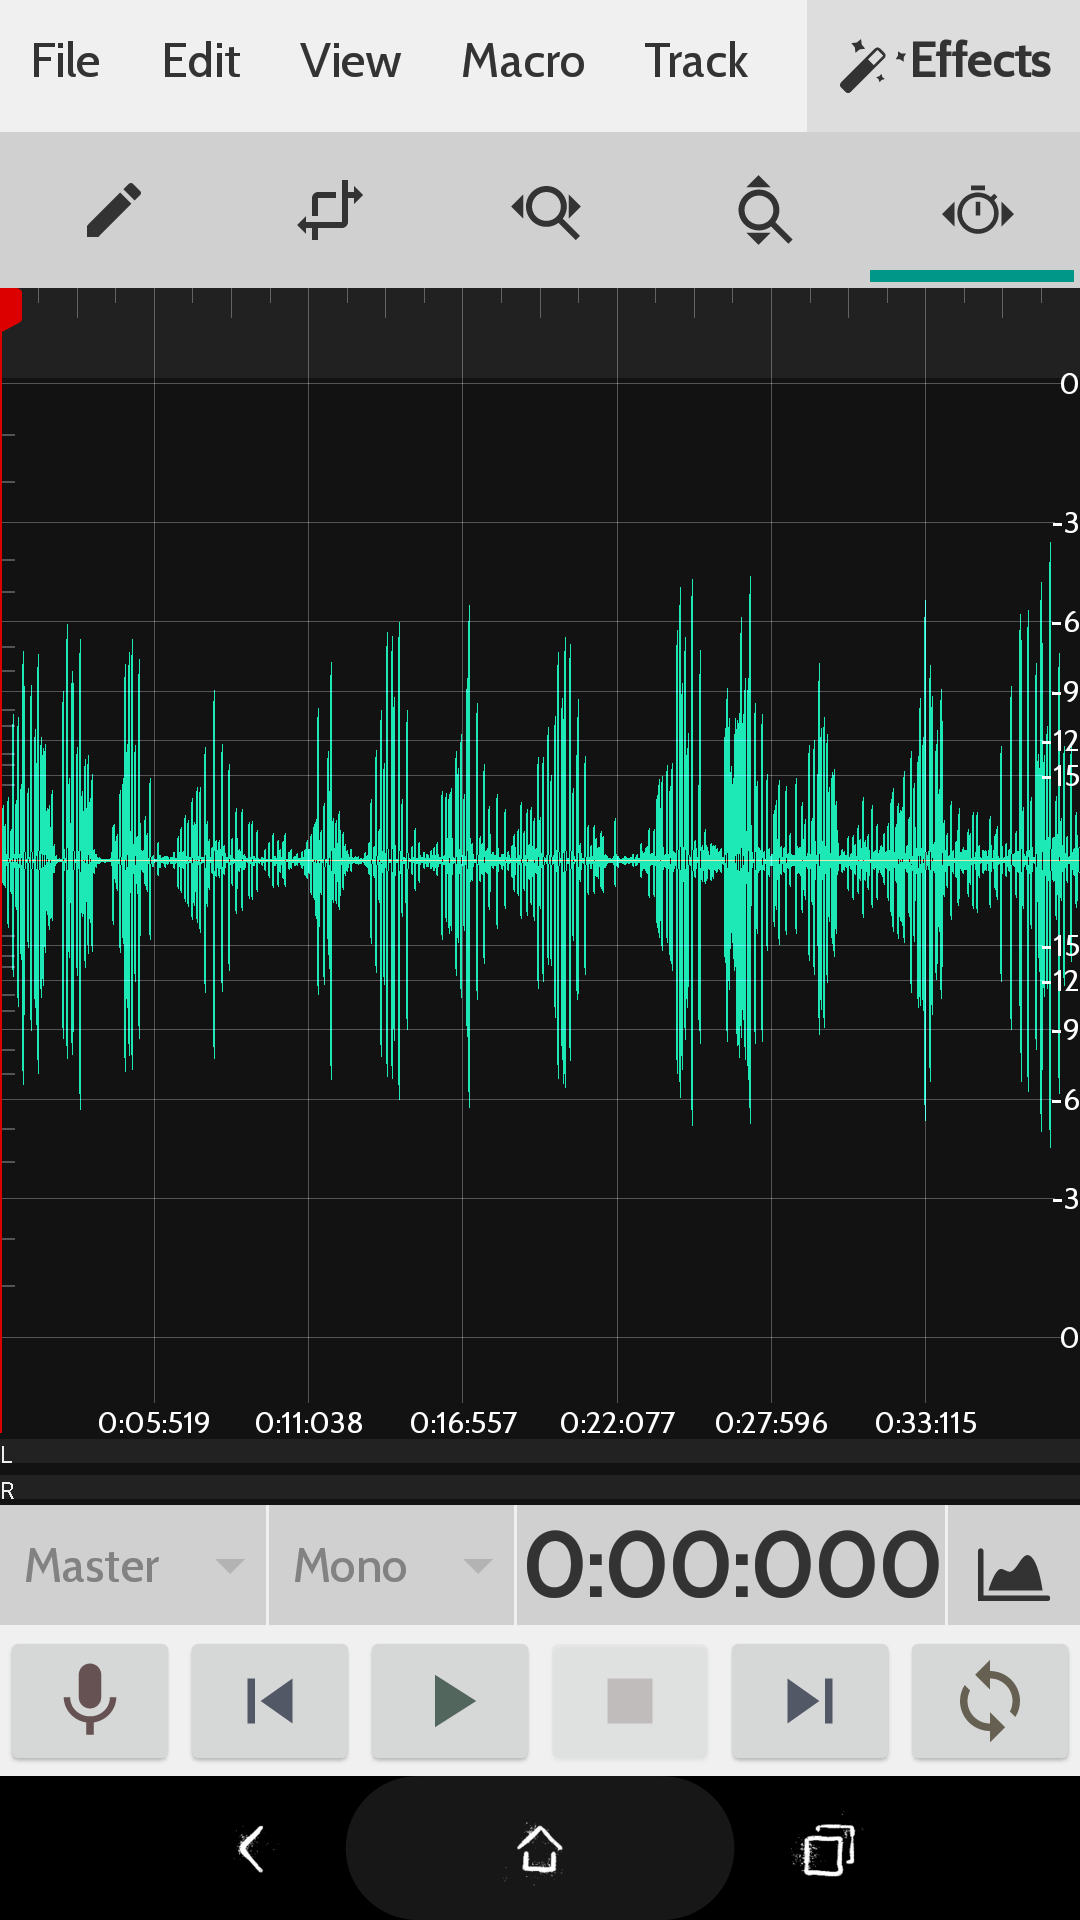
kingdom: Animalia
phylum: Chordata
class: Mammalia
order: Chiroptera
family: Vespertilionidae
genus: Pipistrellus
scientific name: Pipistrellus pipistrellus
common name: Common pipistrelle
